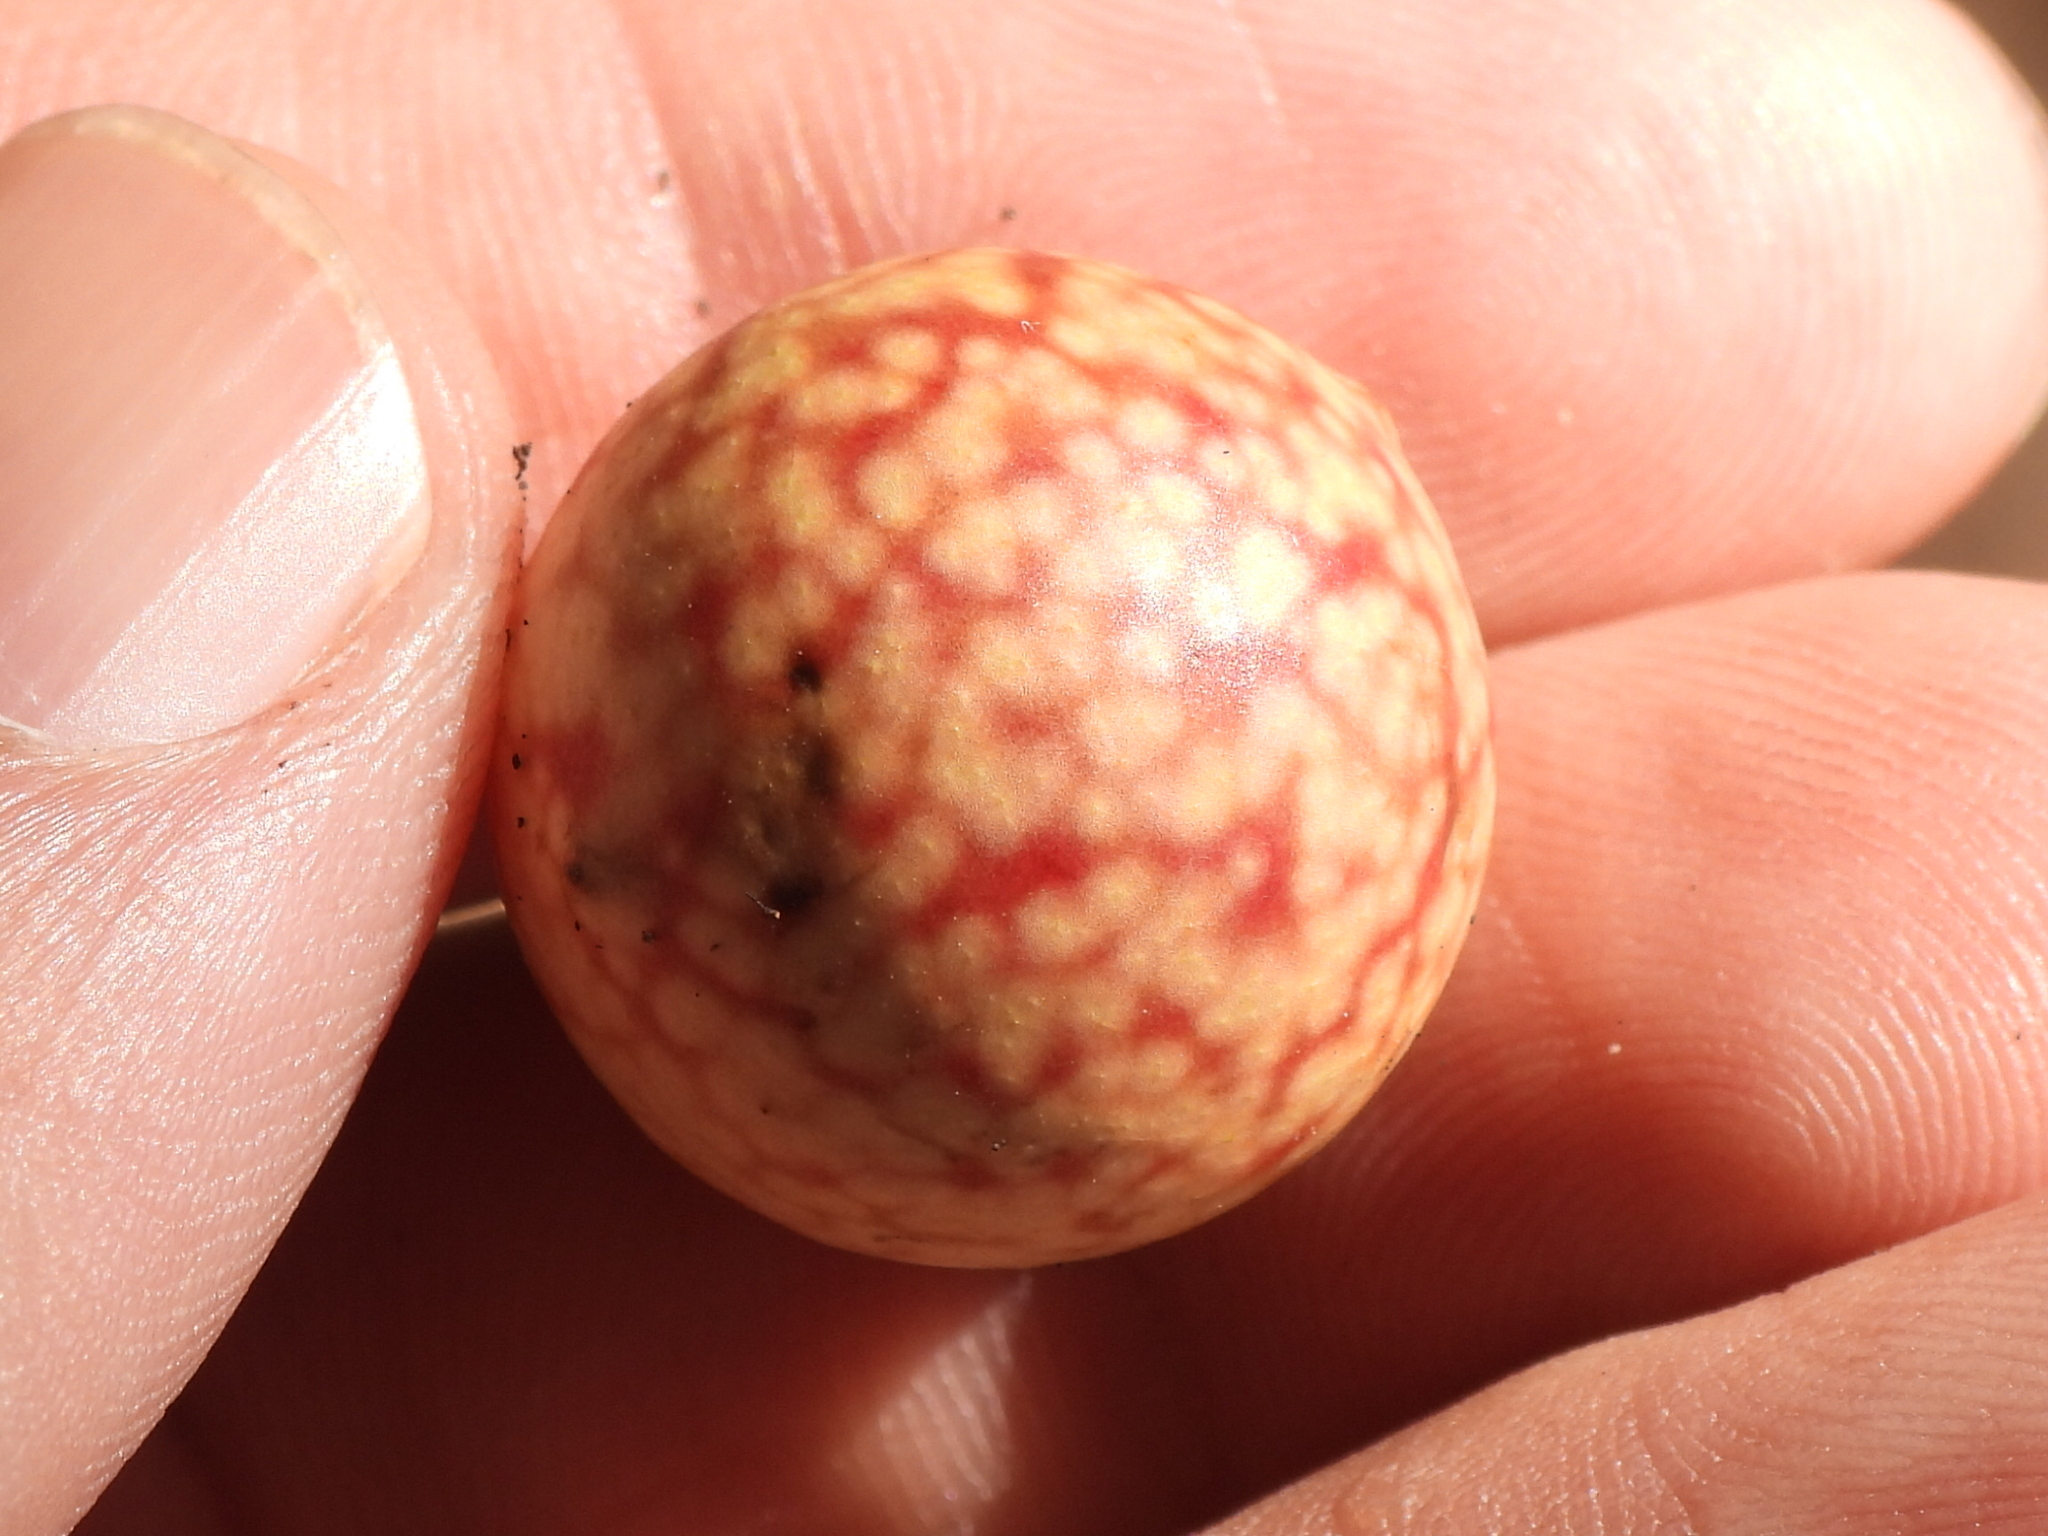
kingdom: Animalia
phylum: Arthropoda
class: Insecta
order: Hymenoptera
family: Cynipidae
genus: Amphibolips
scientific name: Amphibolips
